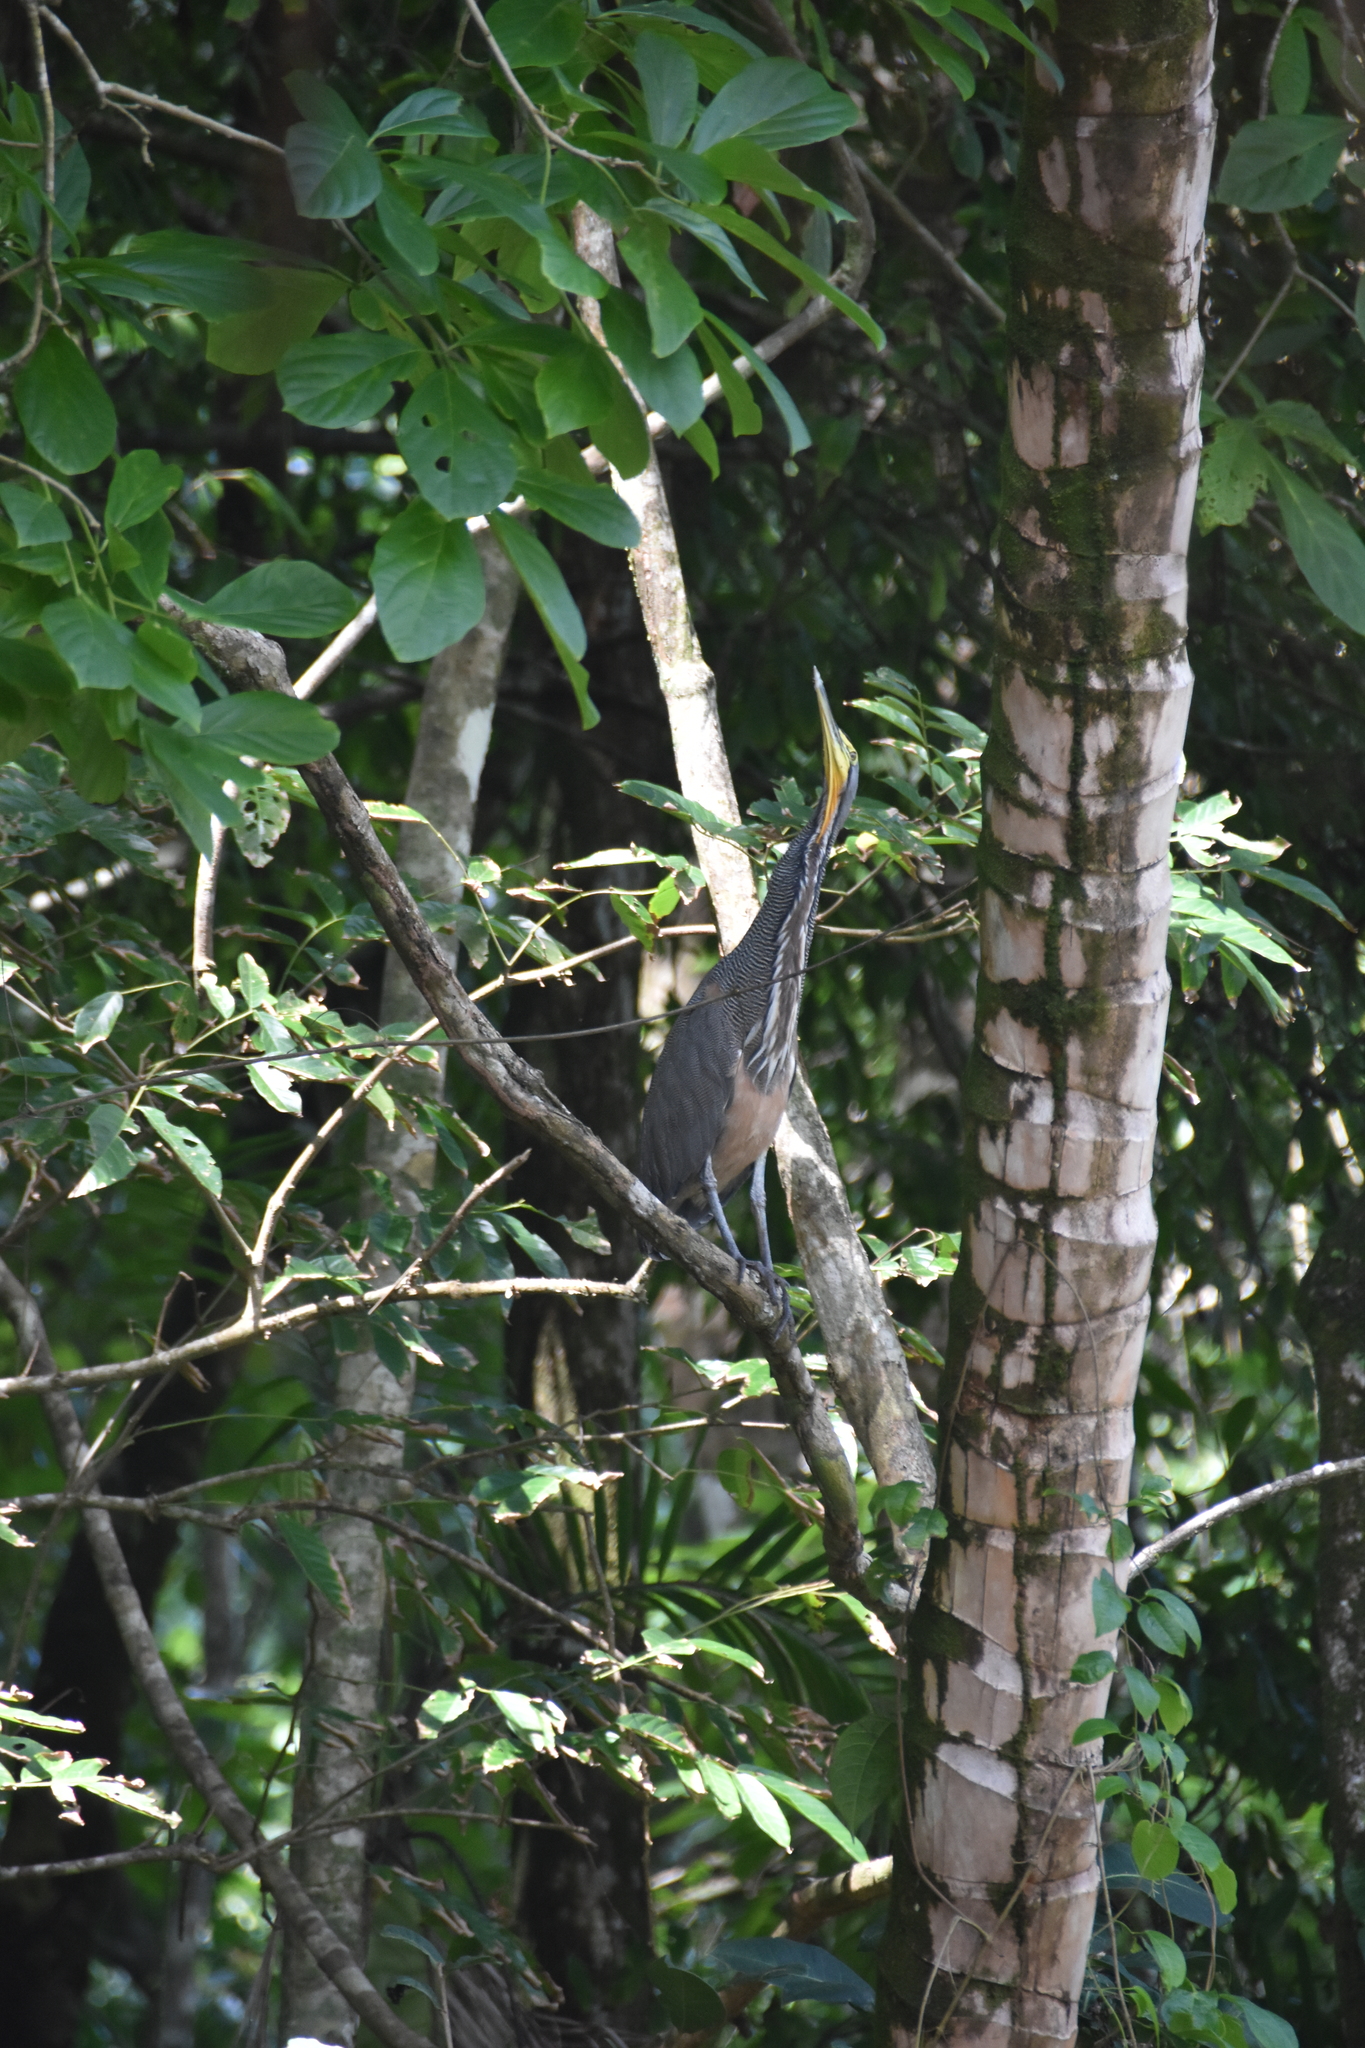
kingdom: Animalia
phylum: Chordata
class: Aves
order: Pelecaniformes
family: Ardeidae
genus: Tigrisoma
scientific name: Tigrisoma mexicanum
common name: Bare-throated tiger-heron
